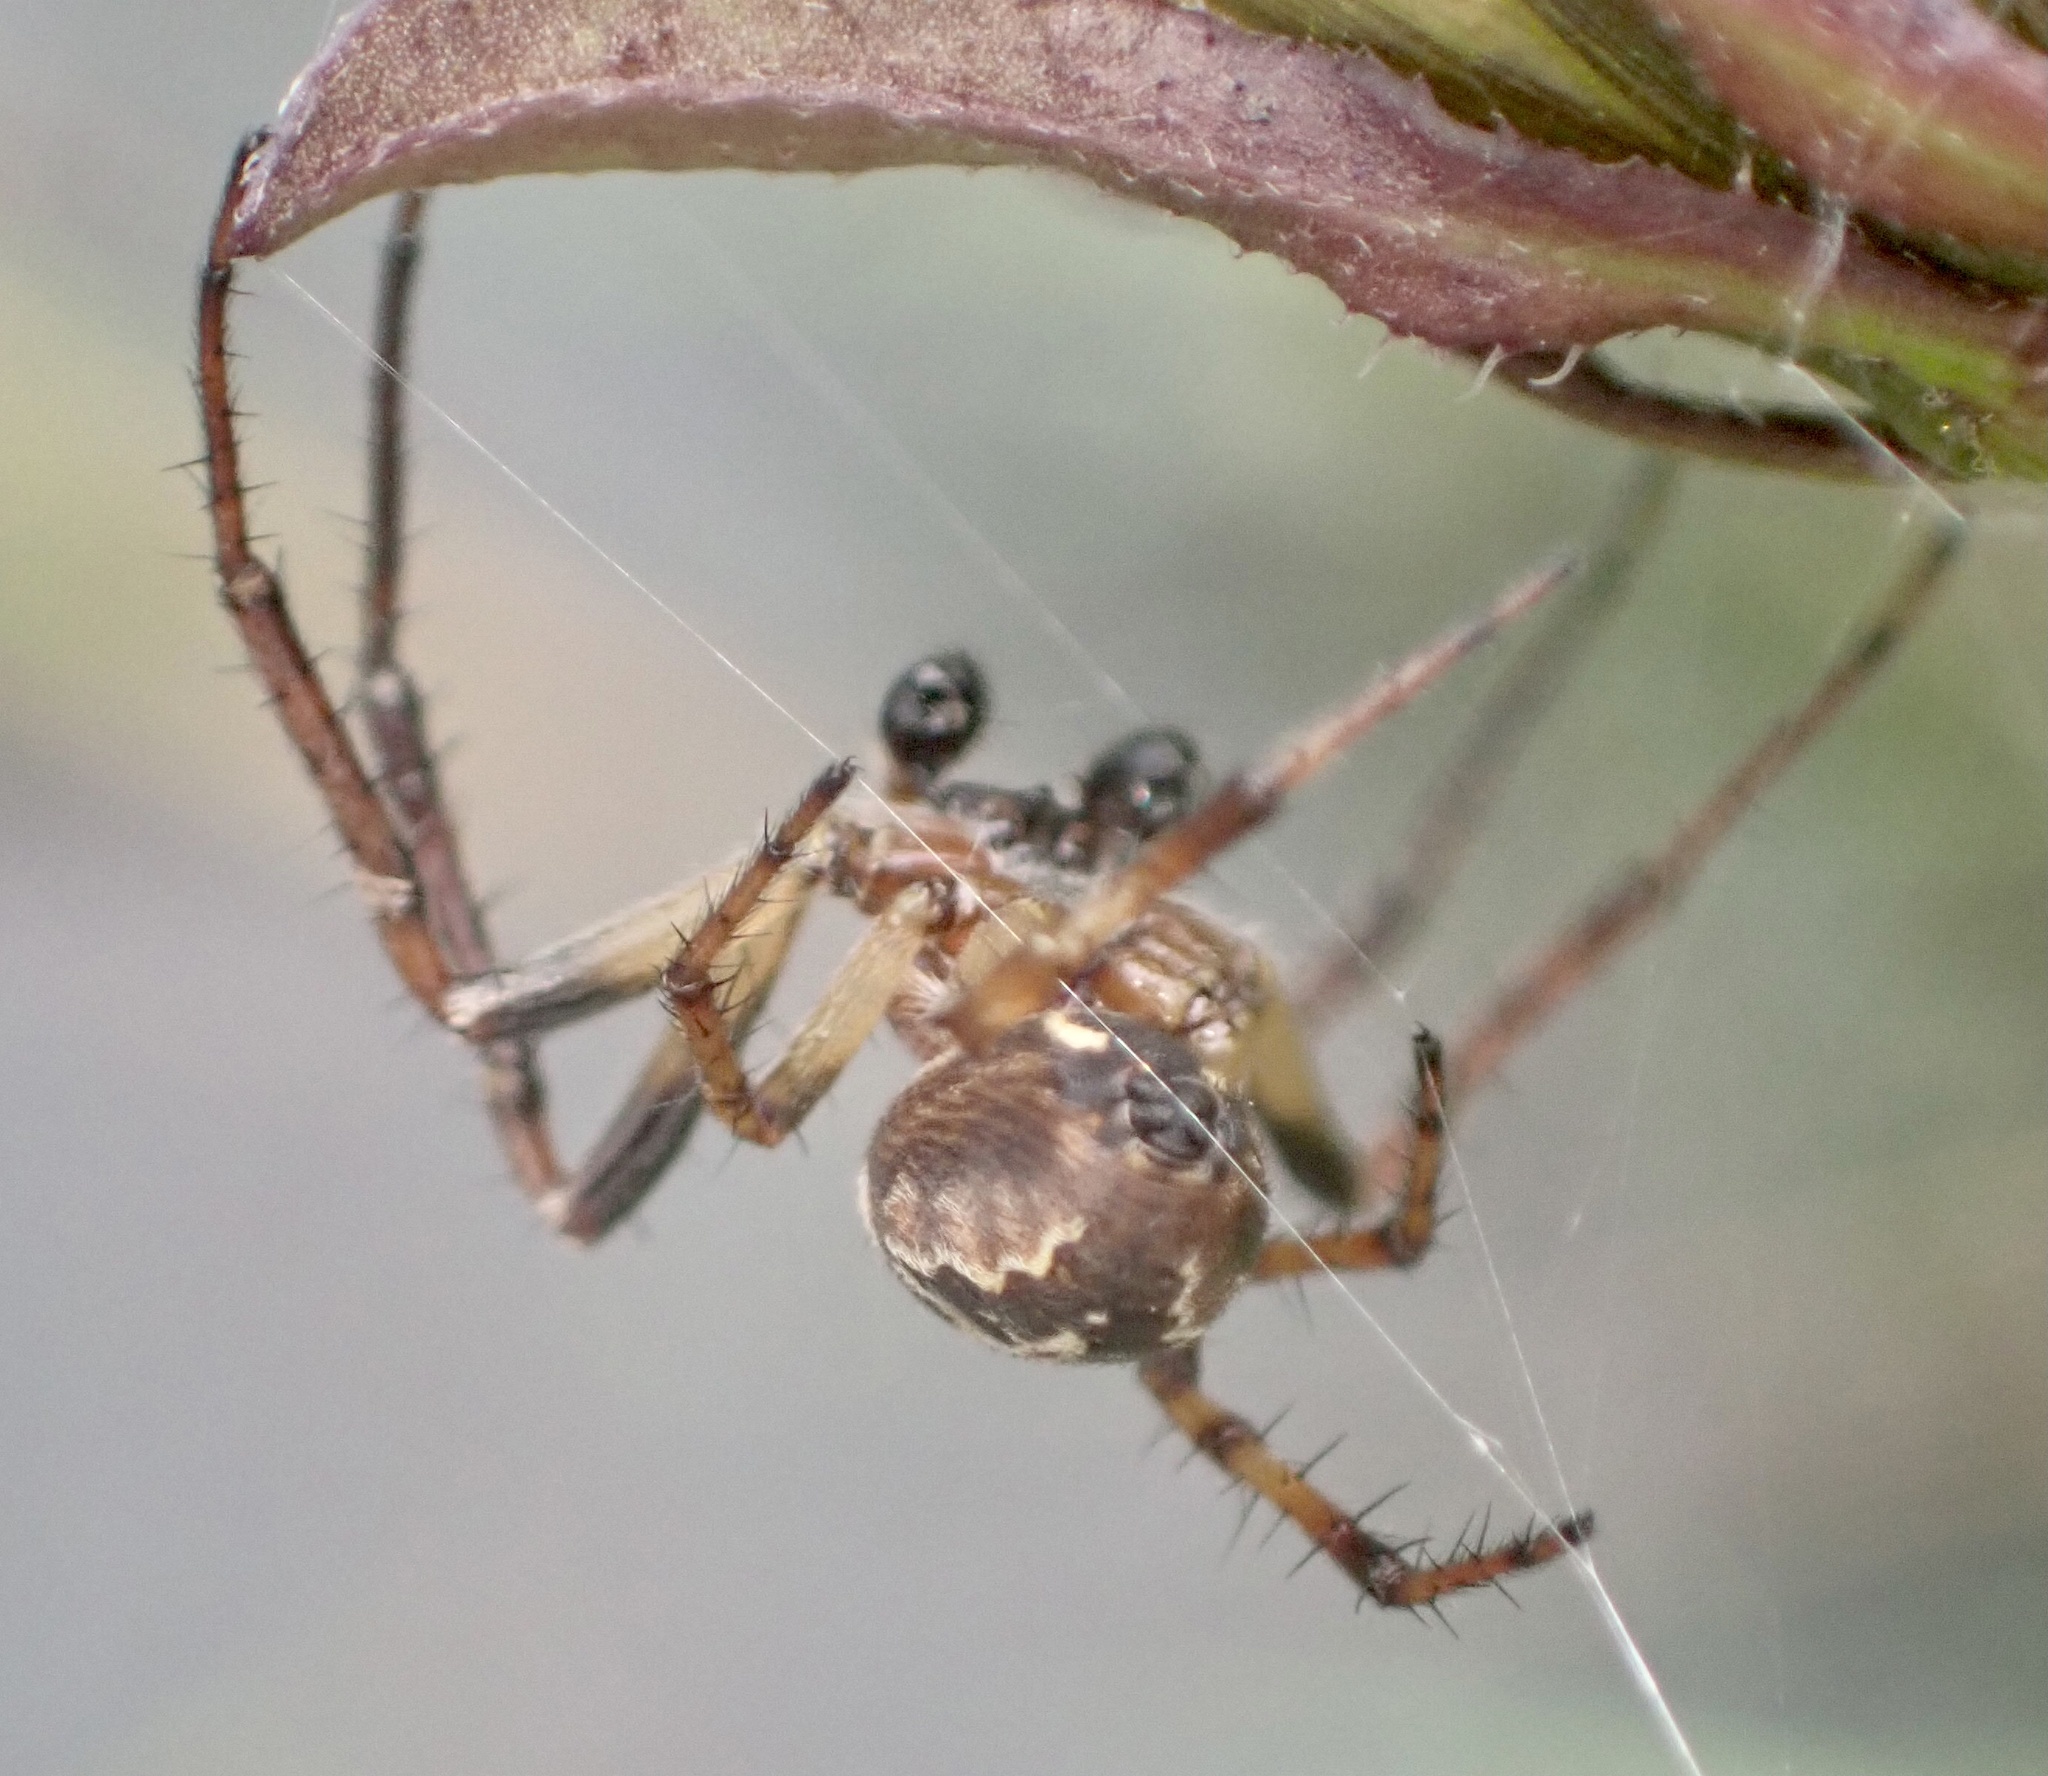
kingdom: Animalia
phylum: Arthropoda
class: Arachnida
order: Araneae
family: Araneidae
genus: Larinioides
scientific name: Larinioides cornutus
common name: Furrow orbweaver
